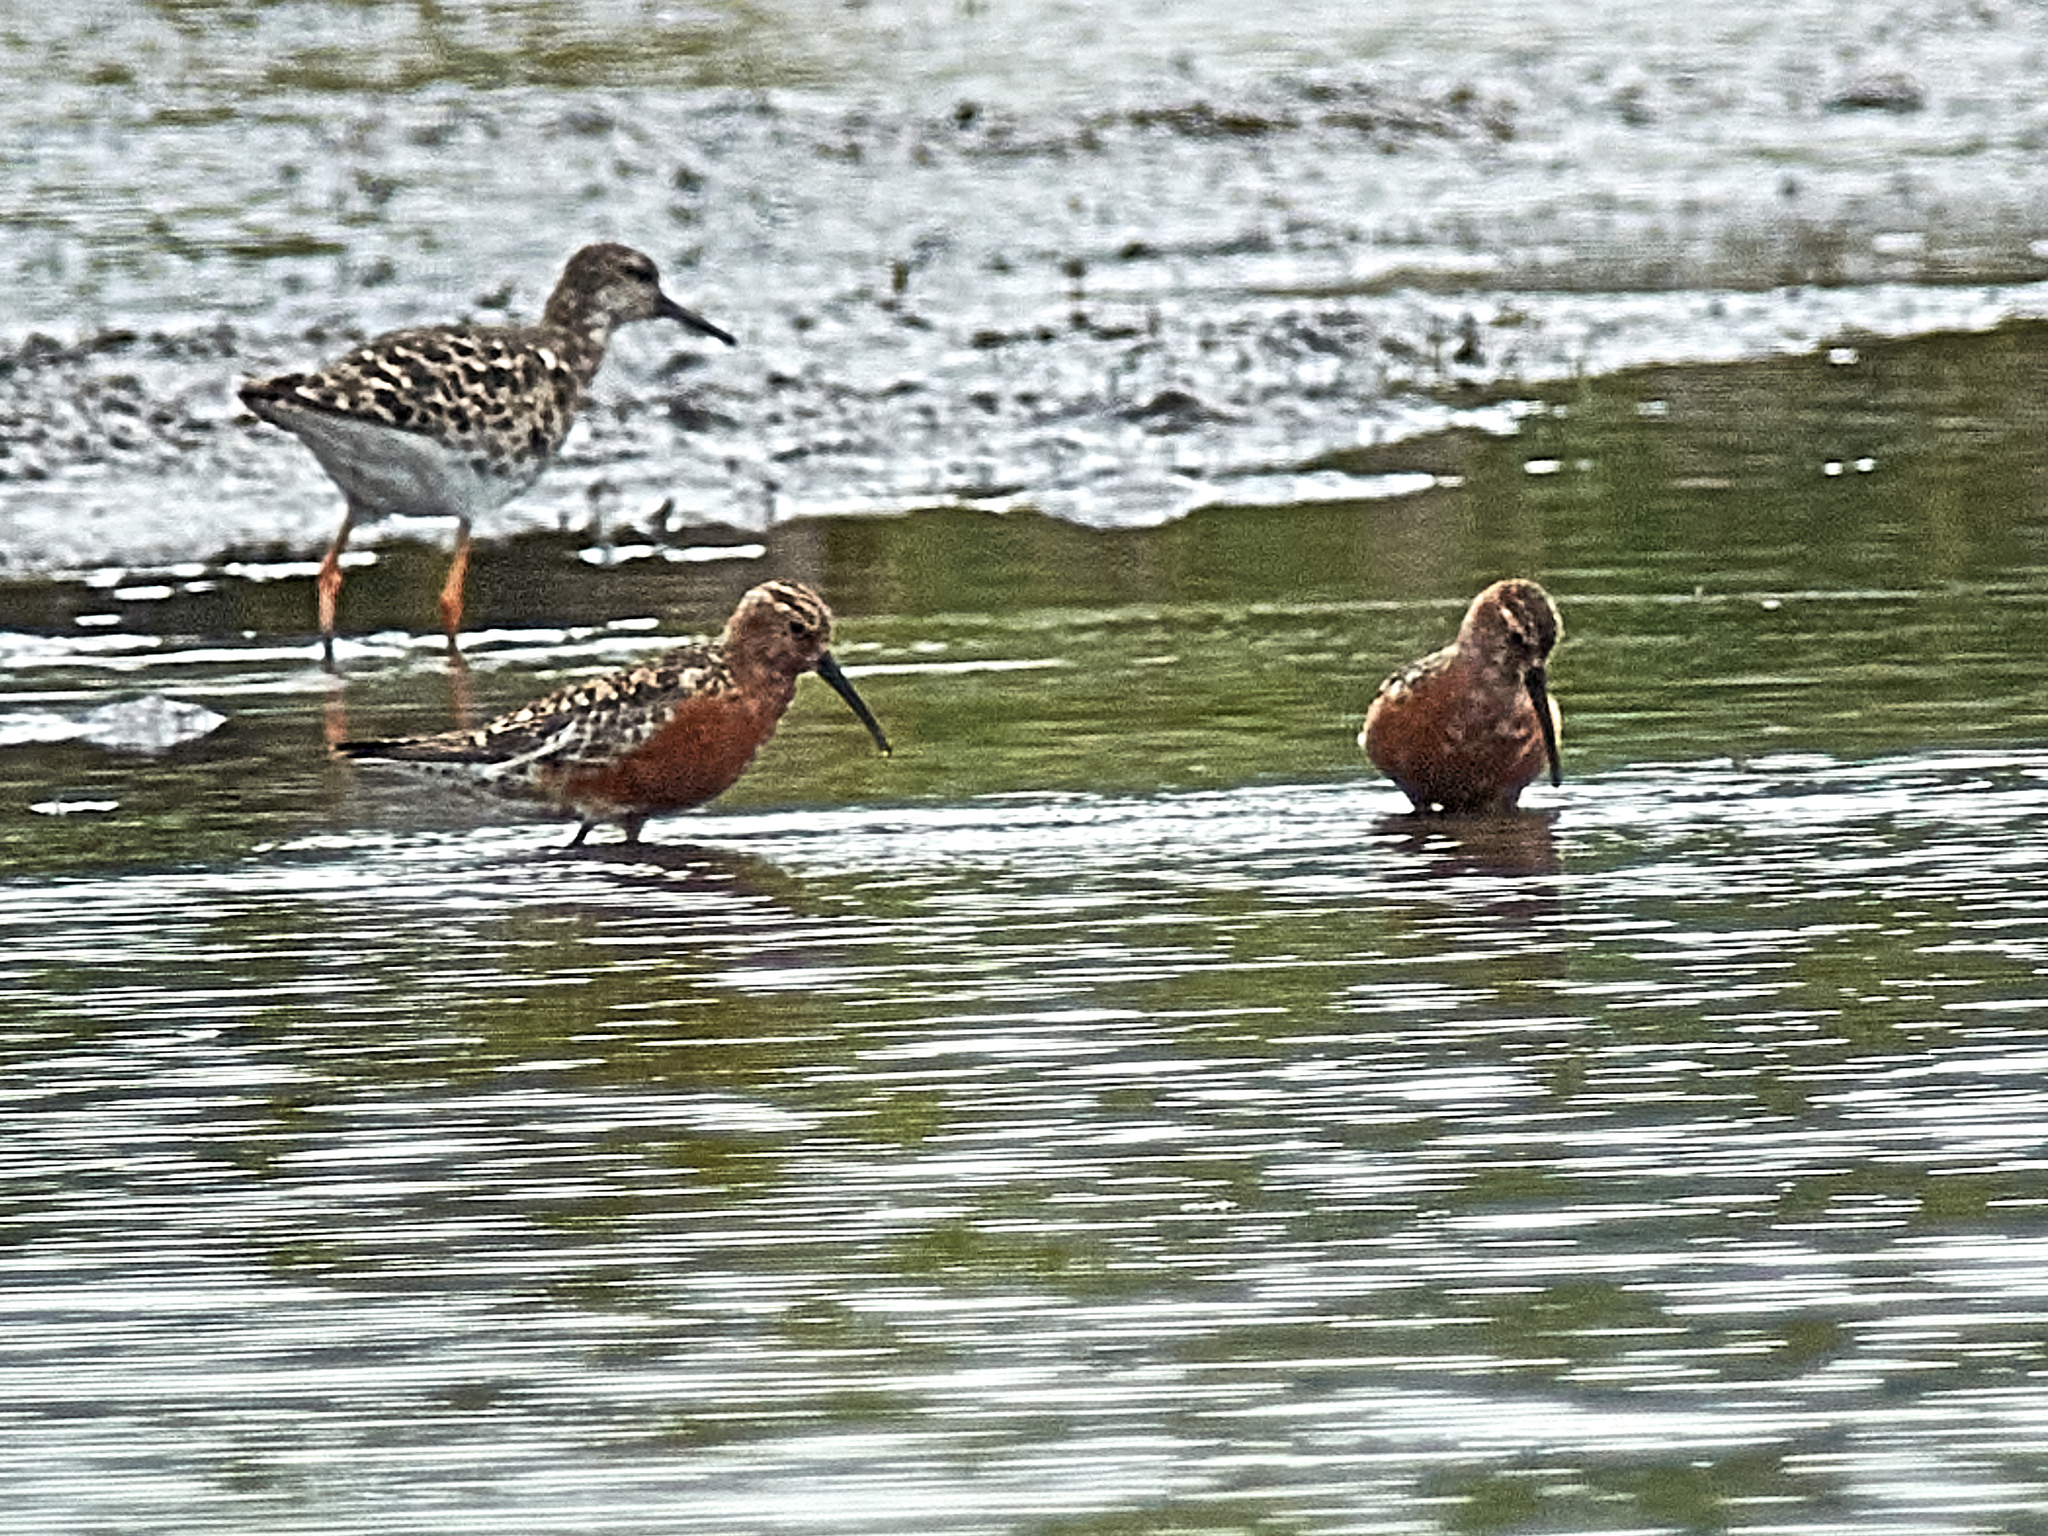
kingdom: Animalia
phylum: Chordata
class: Aves
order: Charadriiformes
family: Scolopacidae
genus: Calidris
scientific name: Calidris ferruginea
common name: Curlew sandpiper
